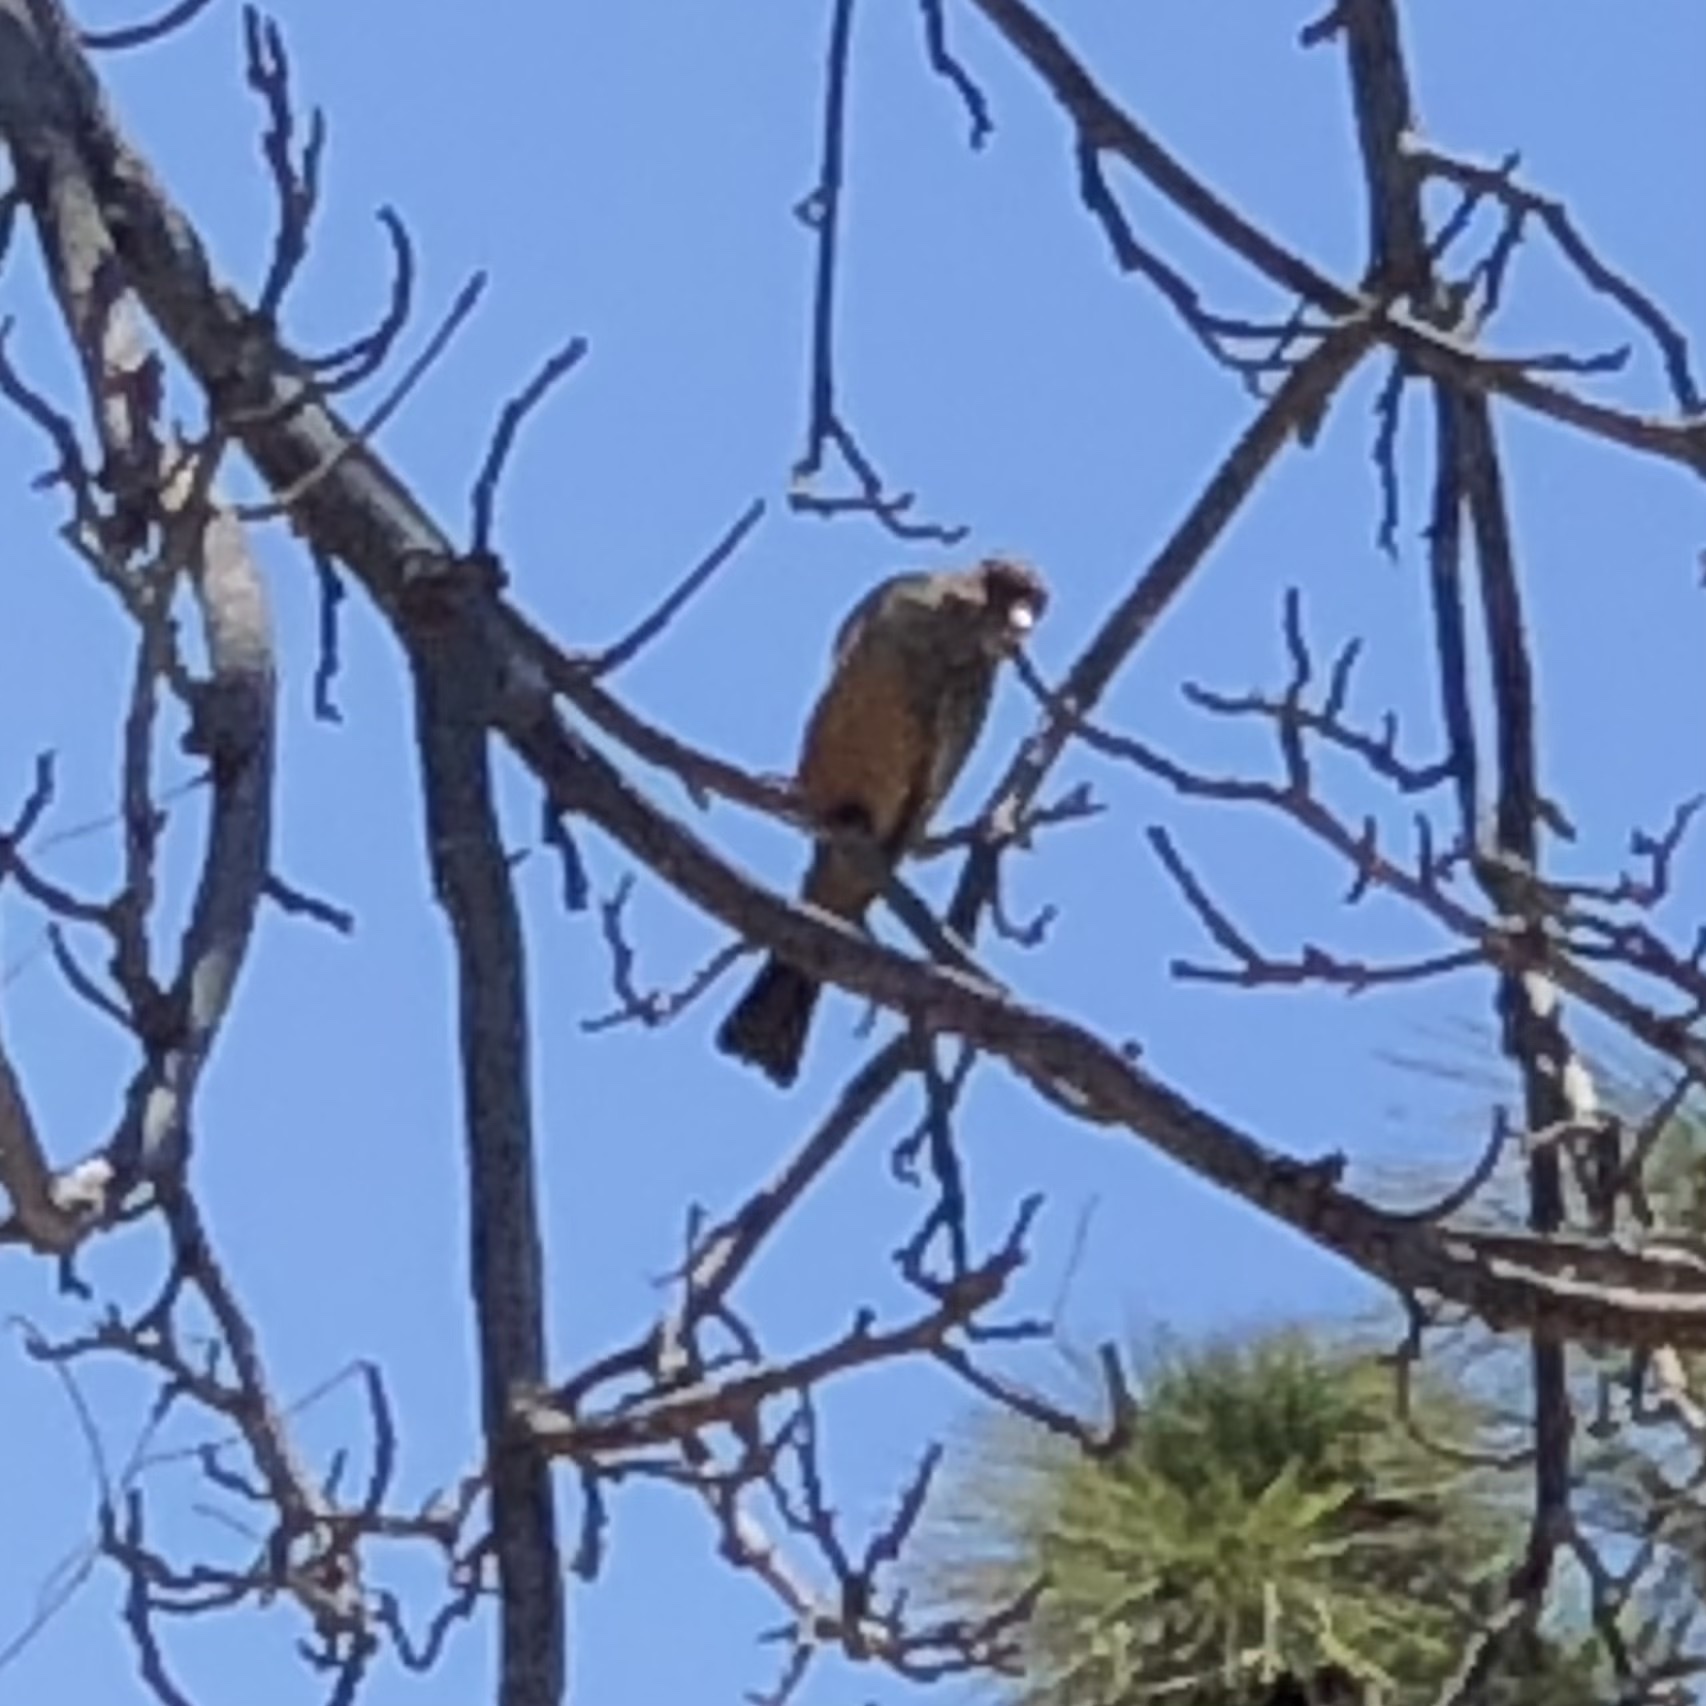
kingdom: Animalia
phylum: Chordata
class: Aves
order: Passeriformes
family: Tyrannidae
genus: Sayornis
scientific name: Sayornis saya
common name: Say's phoebe
